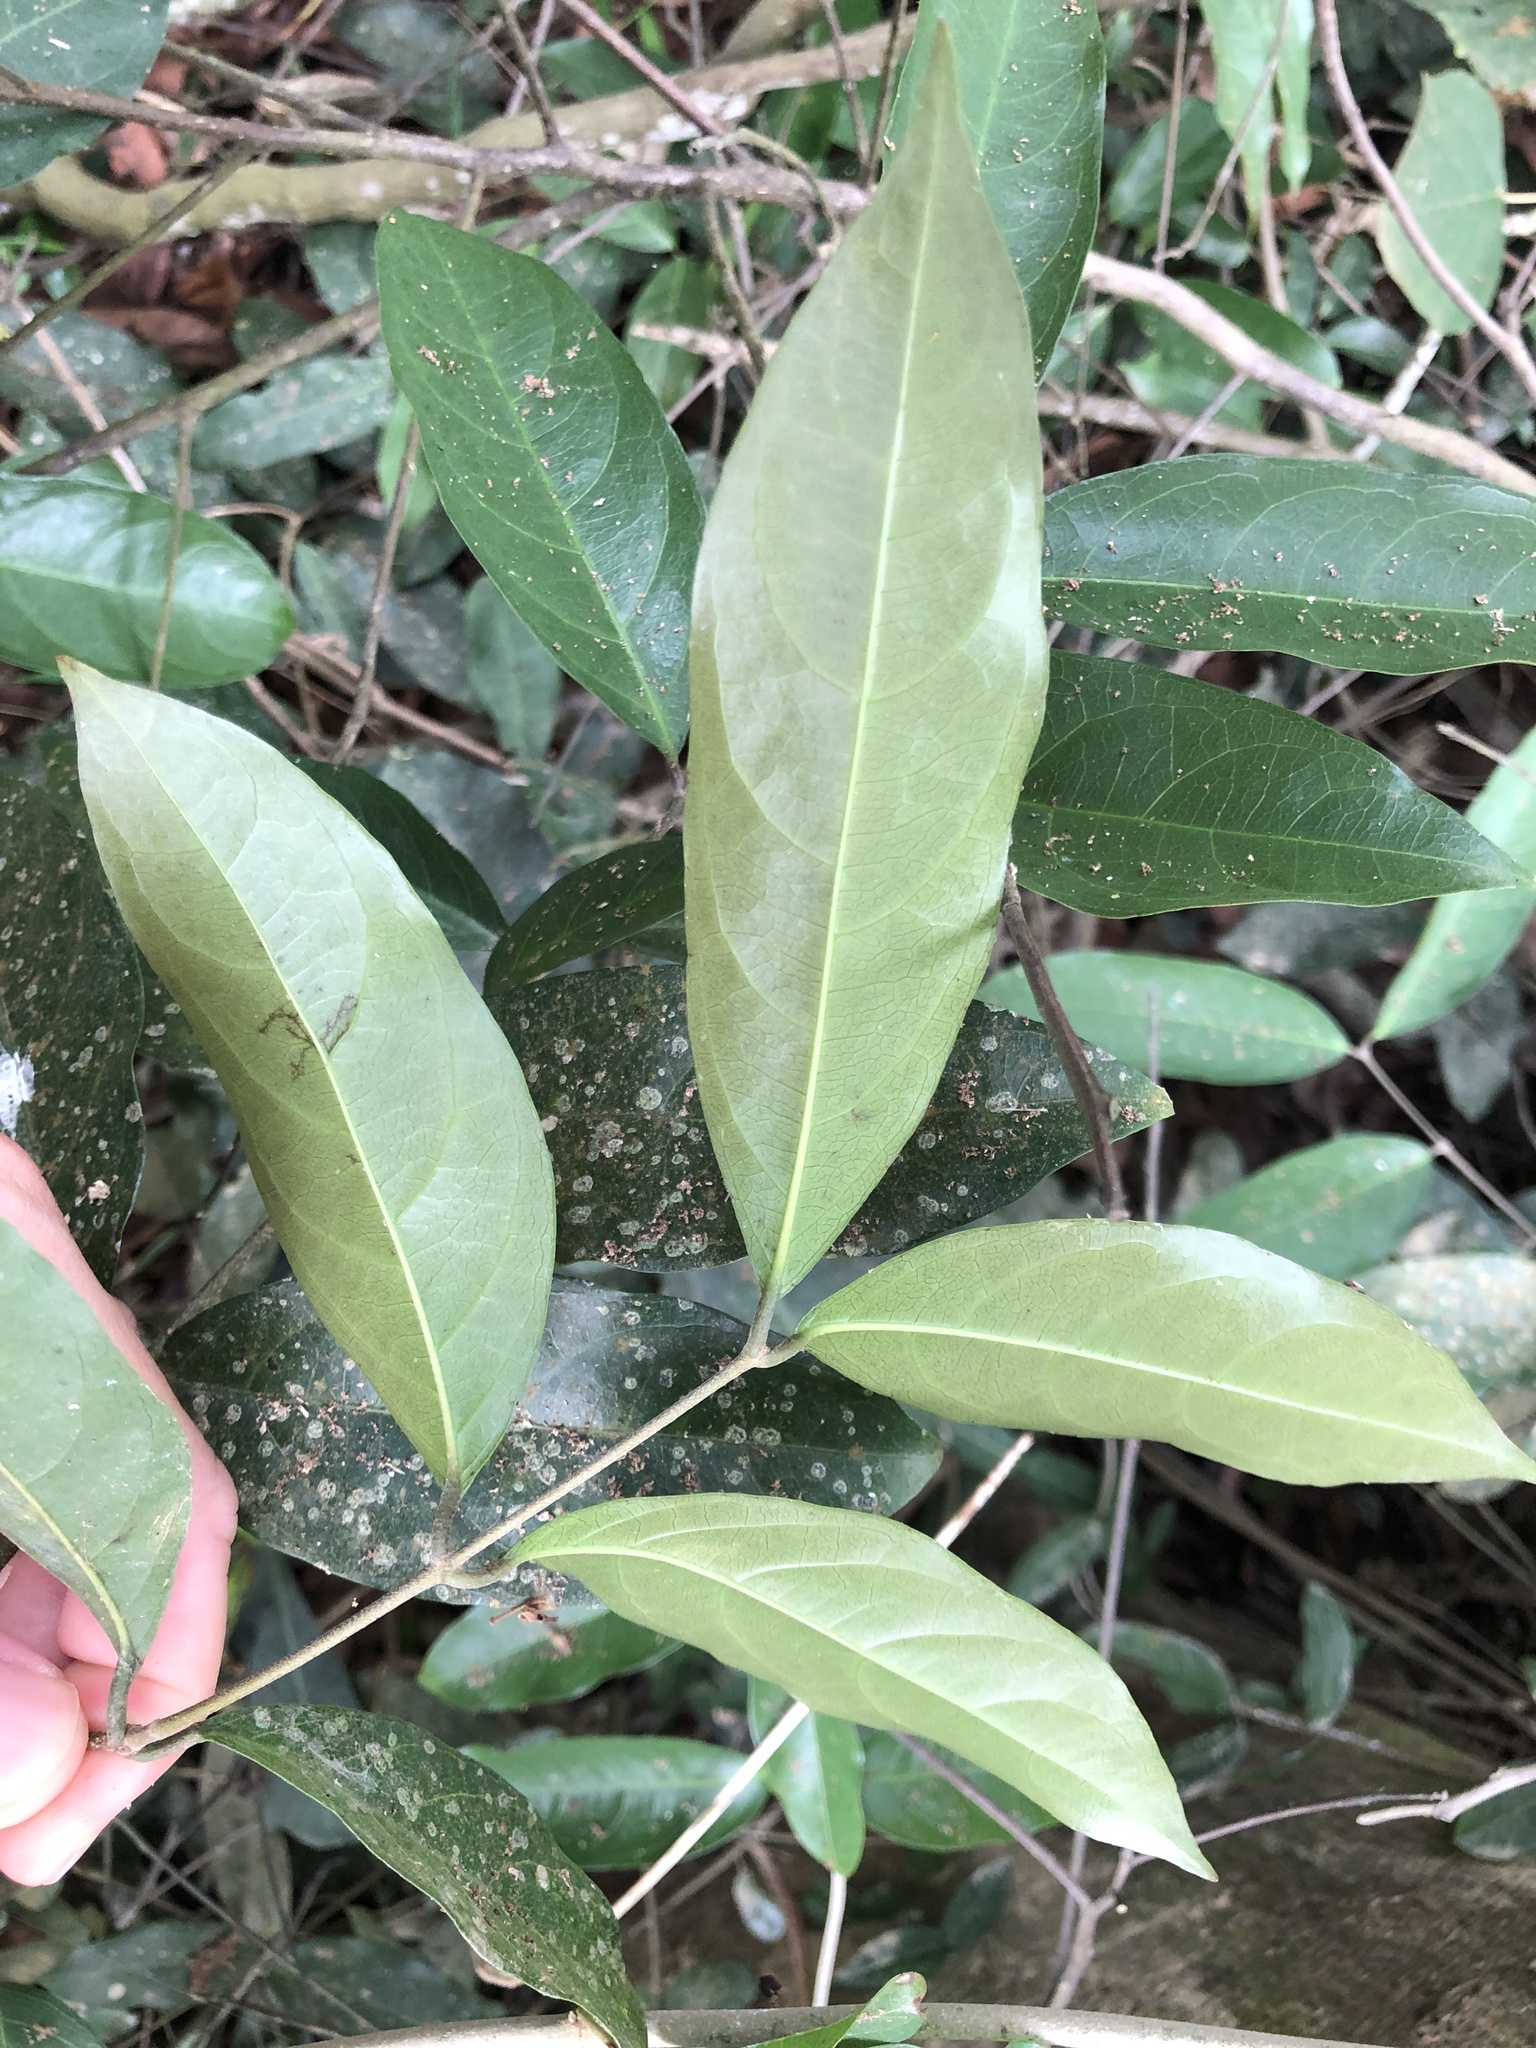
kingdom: Plantae
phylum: Tracheophyta
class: Magnoliopsida
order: Malpighiales
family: Malpighiaceae
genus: Hiptage
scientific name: Hiptage benghalensis
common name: Hiptage
